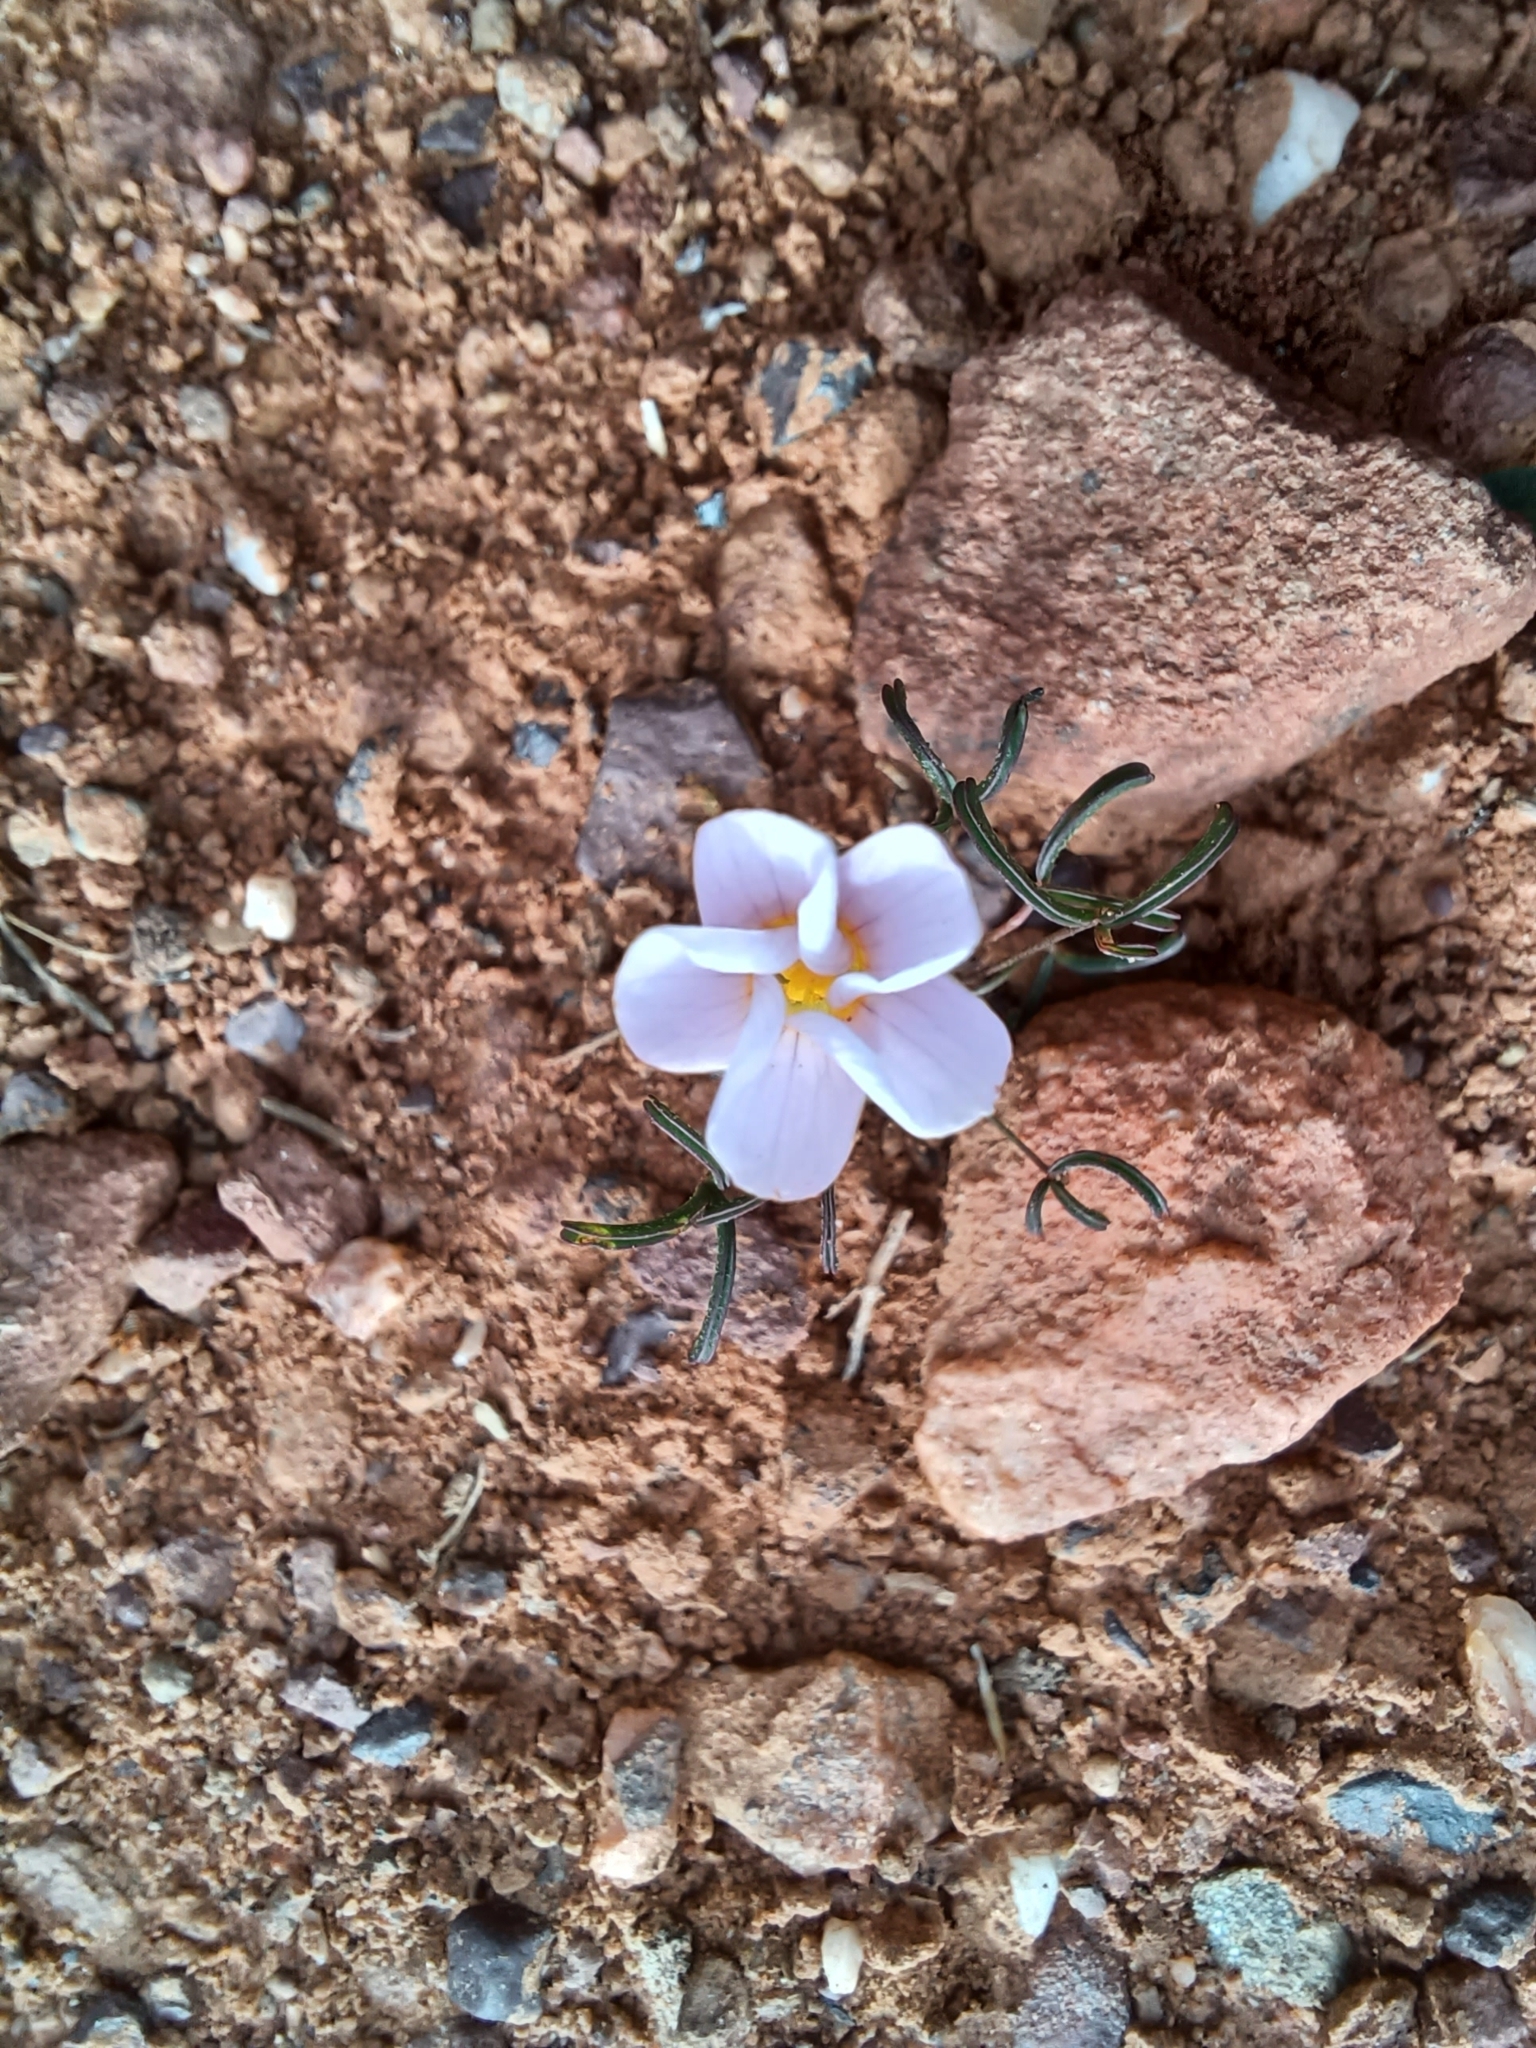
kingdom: Plantae
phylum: Tracheophyta
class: Magnoliopsida
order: Oxalidales
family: Oxalidaceae
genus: Oxalis
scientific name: Oxalis burkei
